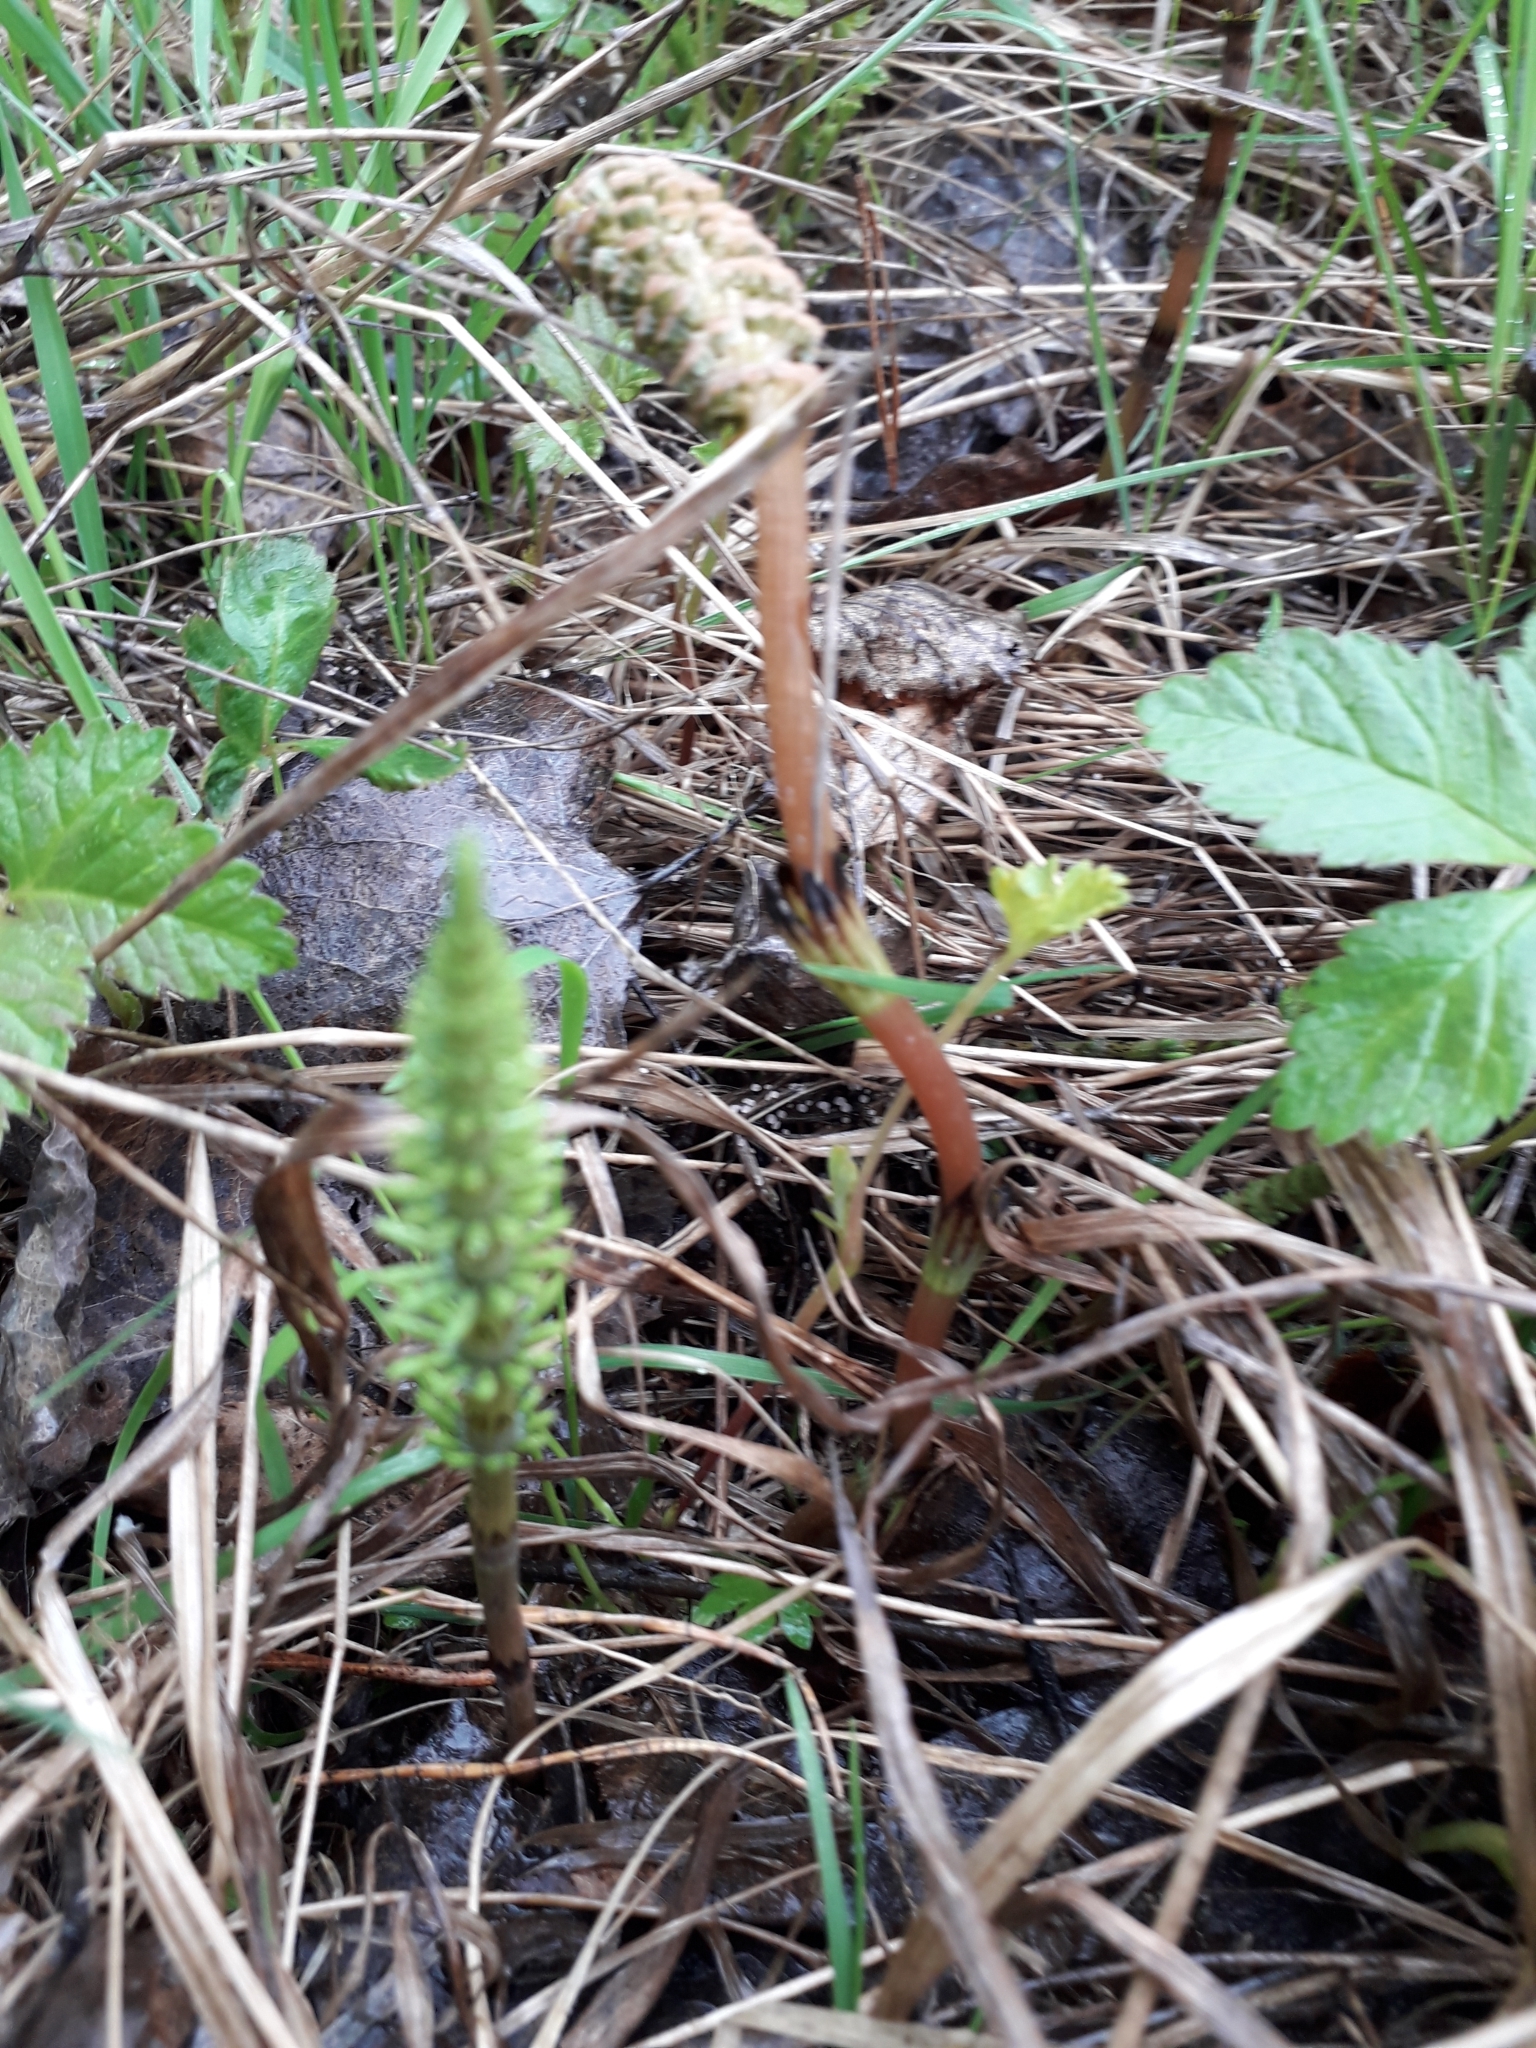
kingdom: Plantae
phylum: Tracheophyta
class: Polypodiopsida
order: Equisetales
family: Equisetaceae
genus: Equisetum
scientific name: Equisetum arvense
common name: Field horsetail
